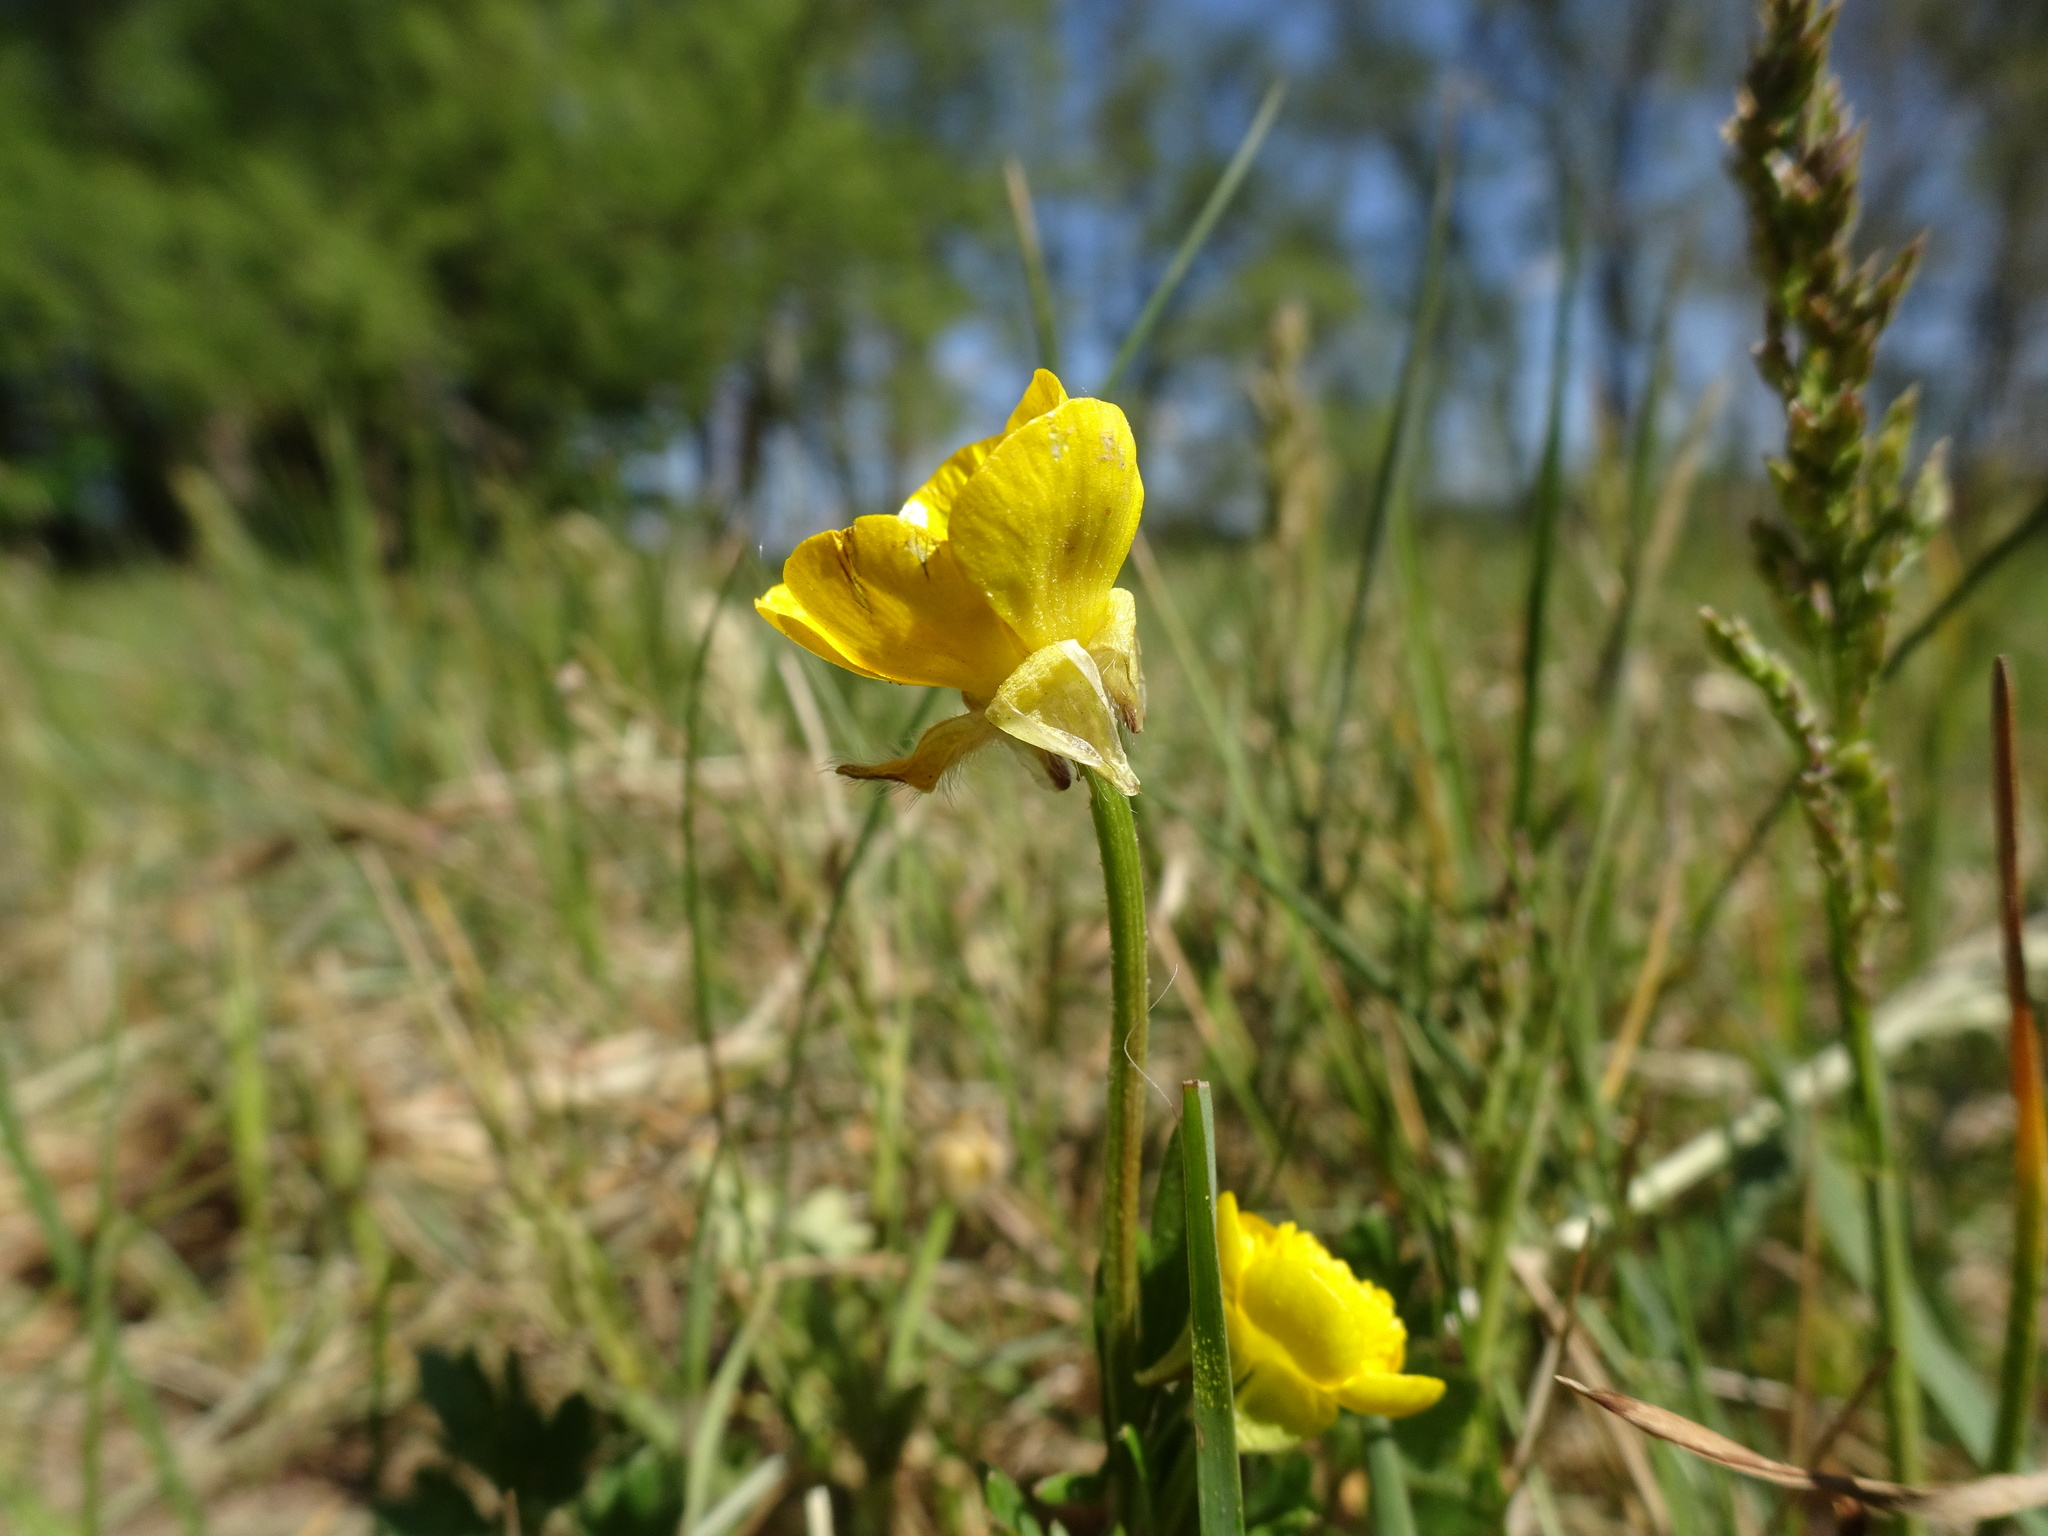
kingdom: Plantae
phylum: Tracheophyta
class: Magnoliopsida
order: Ranunculales
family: Ranunculaceae
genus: Ranunculus
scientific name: Ranunculus bulbosus
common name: Bulbous buttercup
